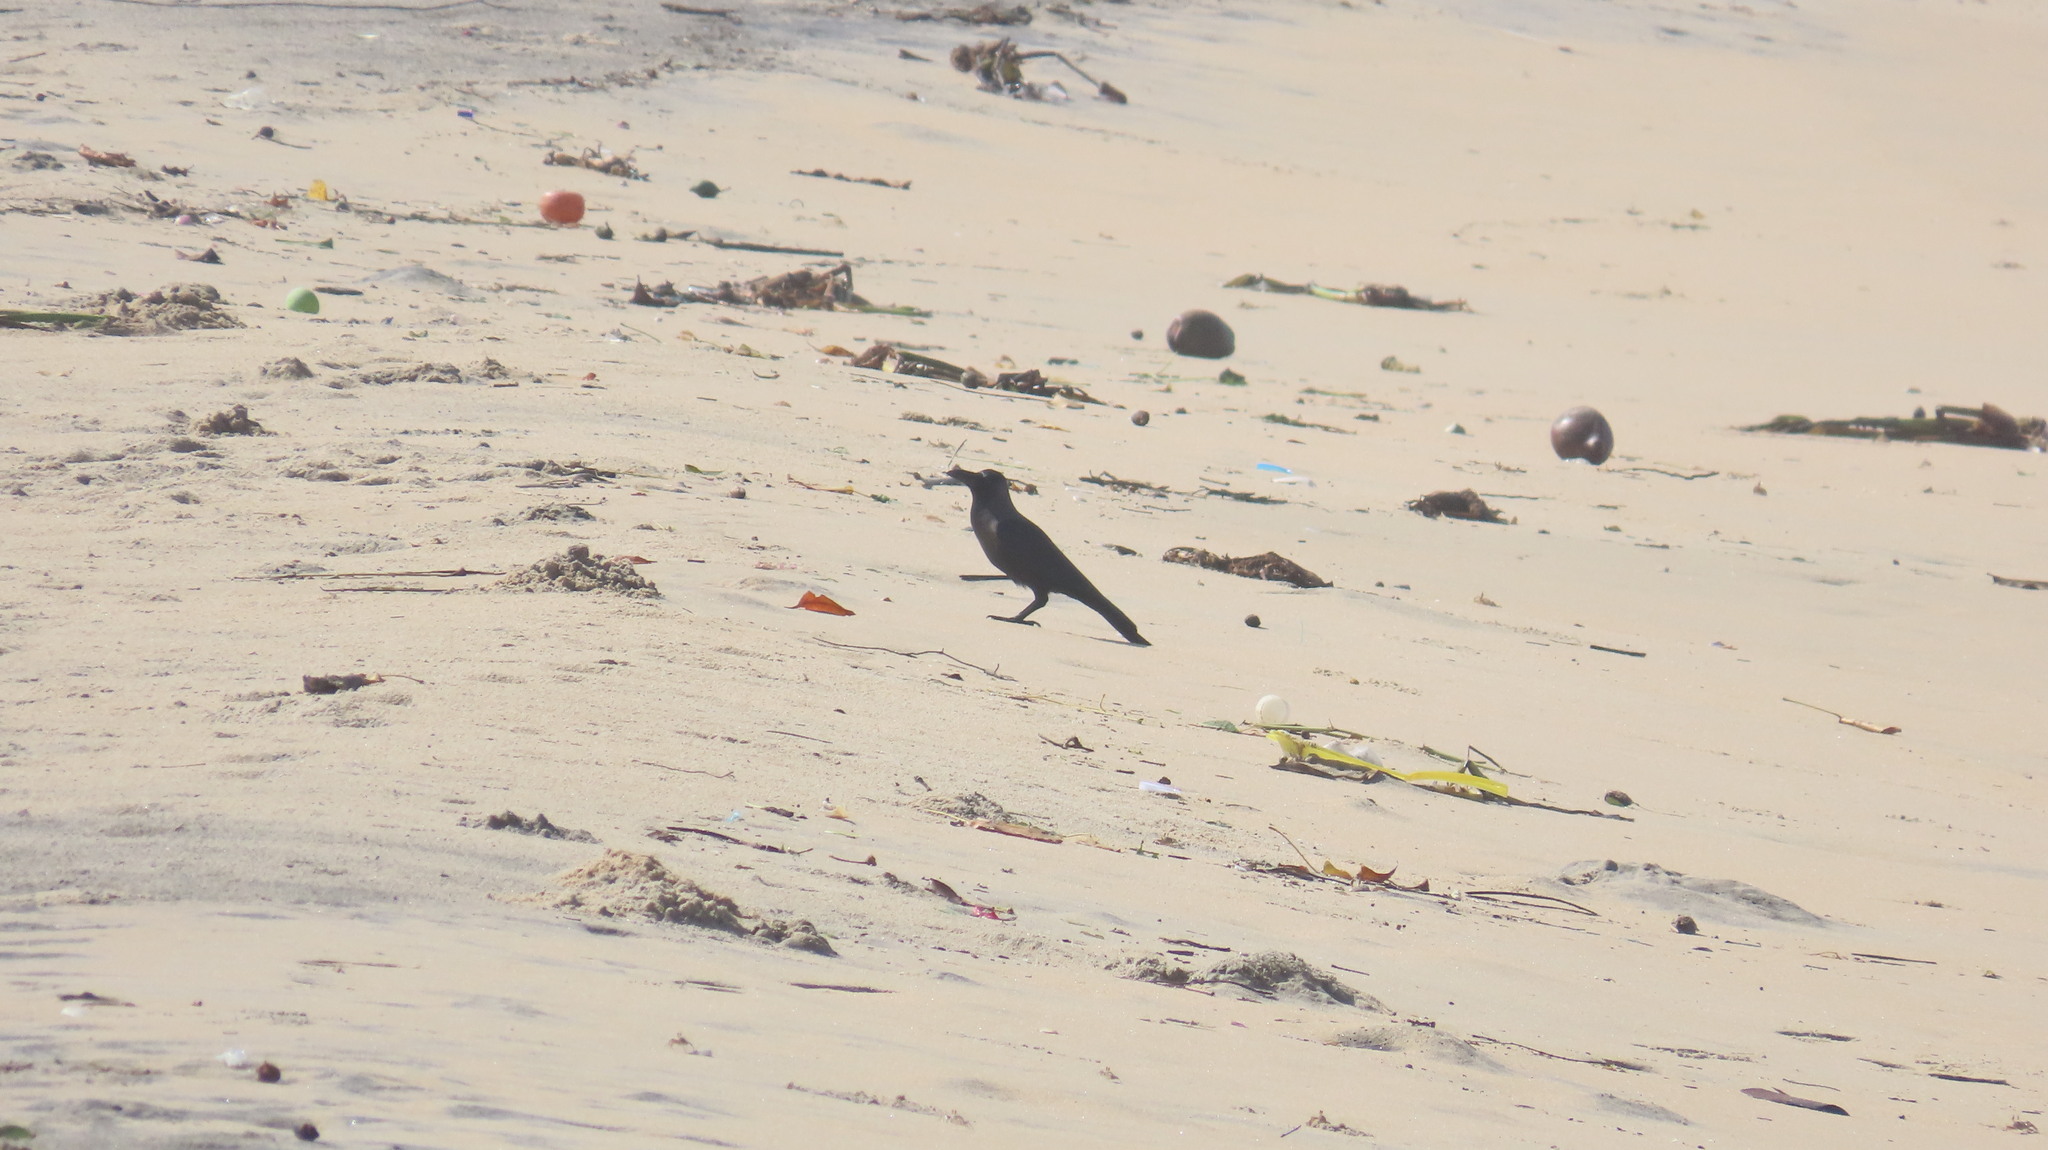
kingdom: Animalia
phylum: Chordata
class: Aves
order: Passeriformes
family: Corvidae
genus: Corvus
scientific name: Corvus splendens
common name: House crow
